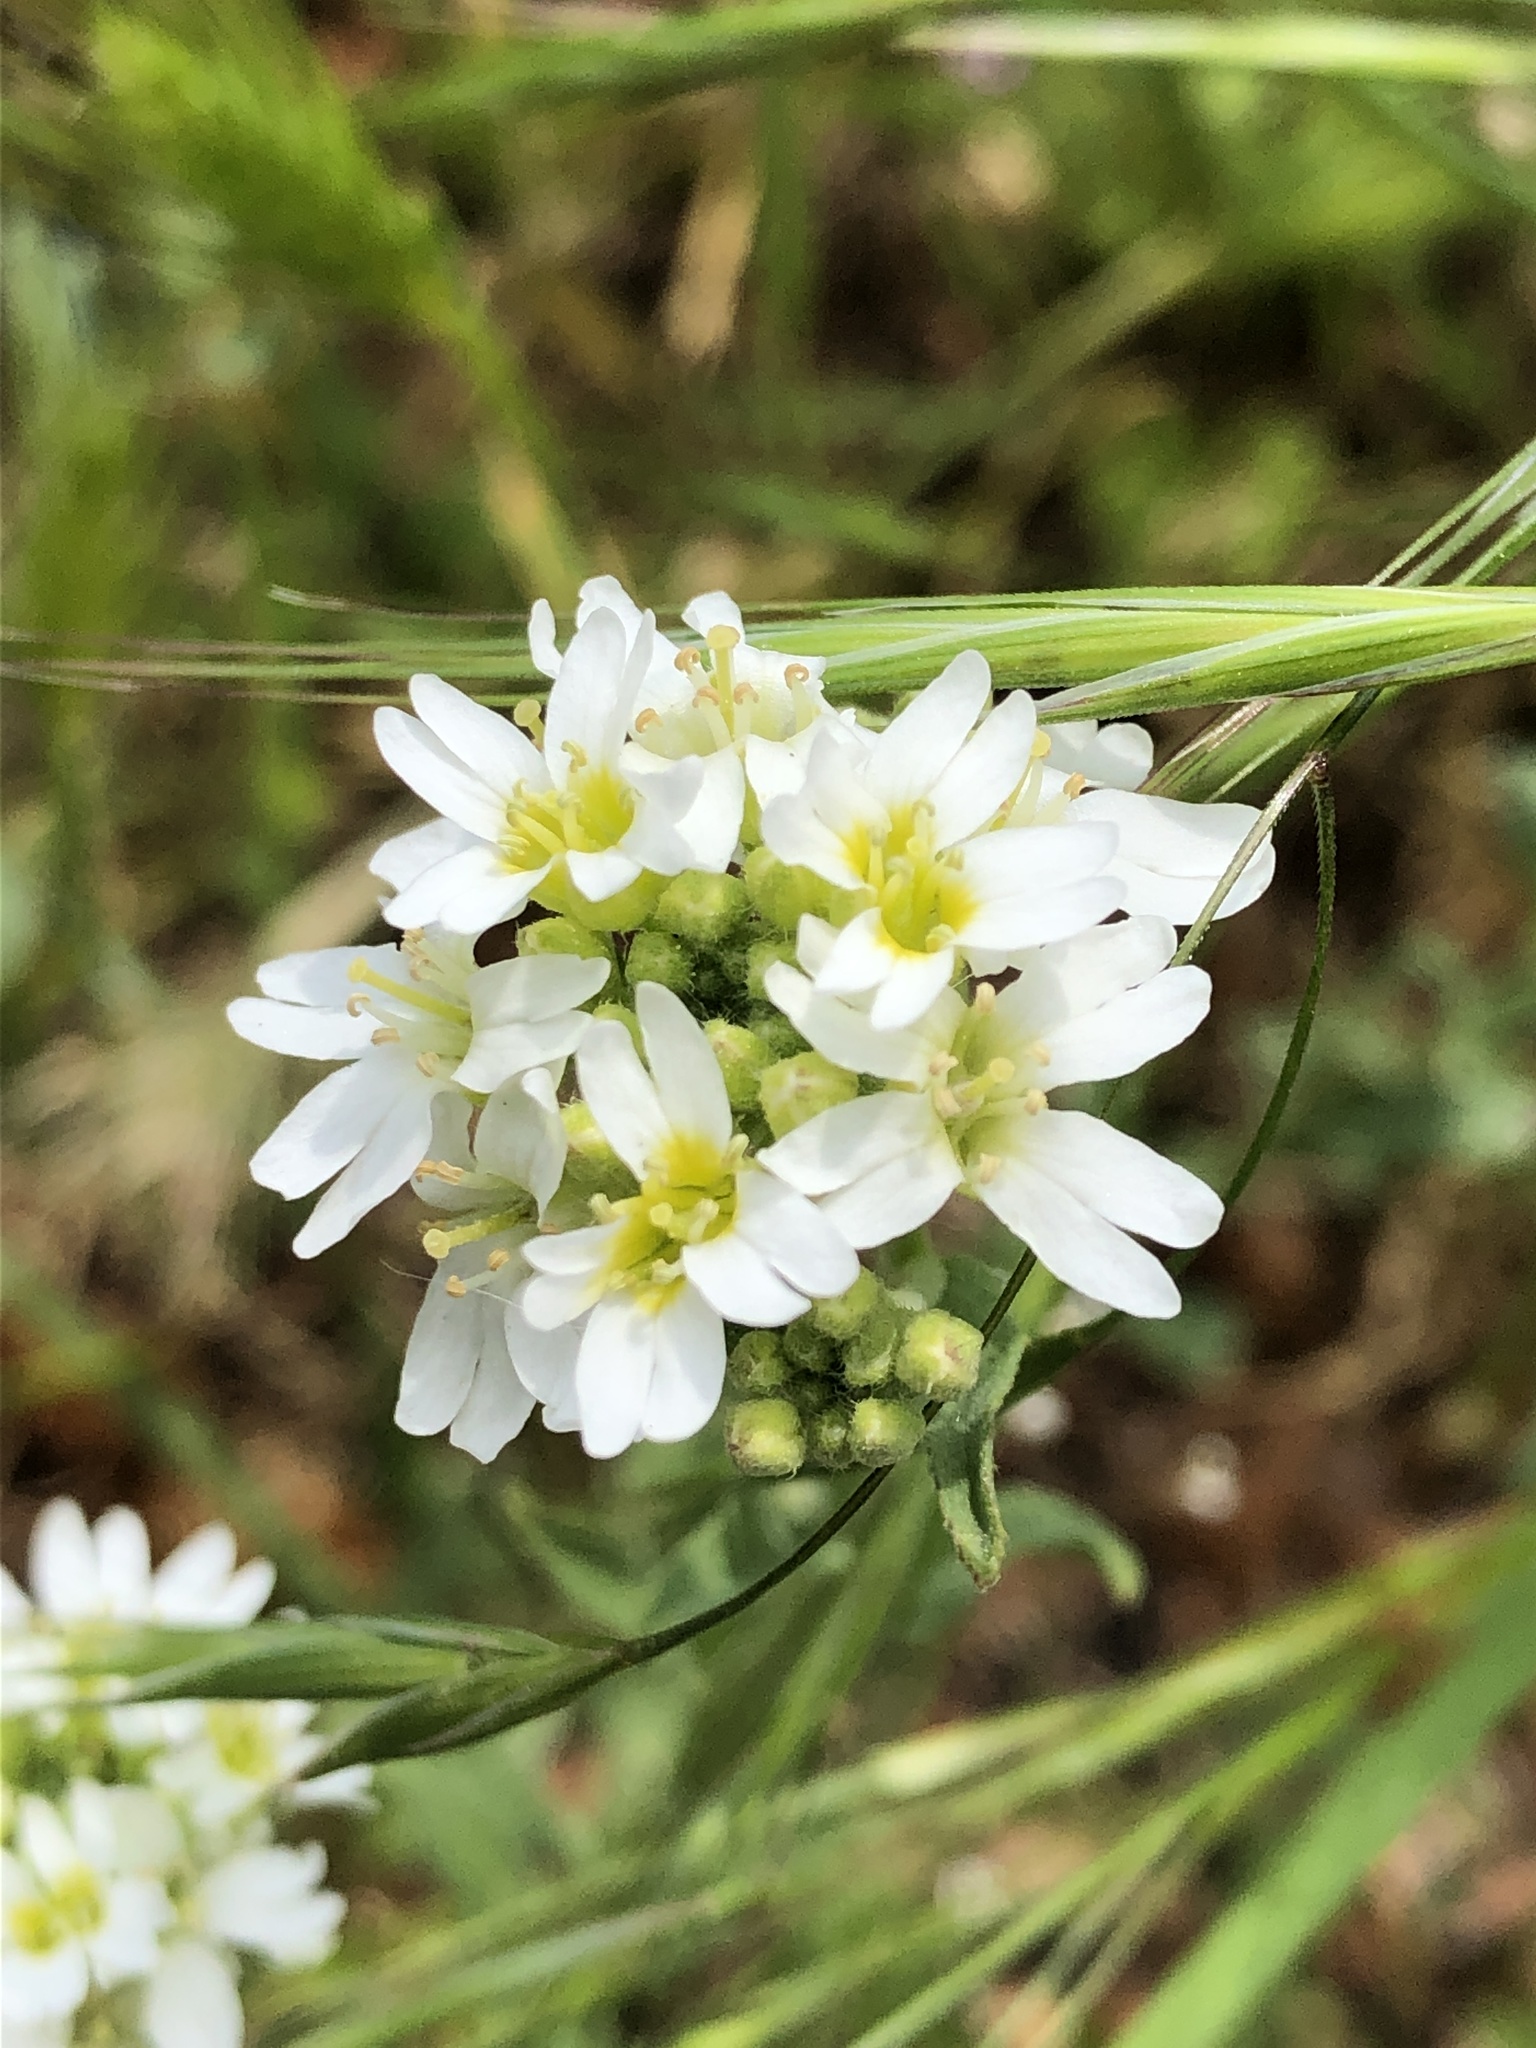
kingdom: Plantae
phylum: Tracheophyta
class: Magnoliopsida
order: Brassicales
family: Brassicaceae
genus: Berteroa
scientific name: Berteroa incana
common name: Hoary alison
